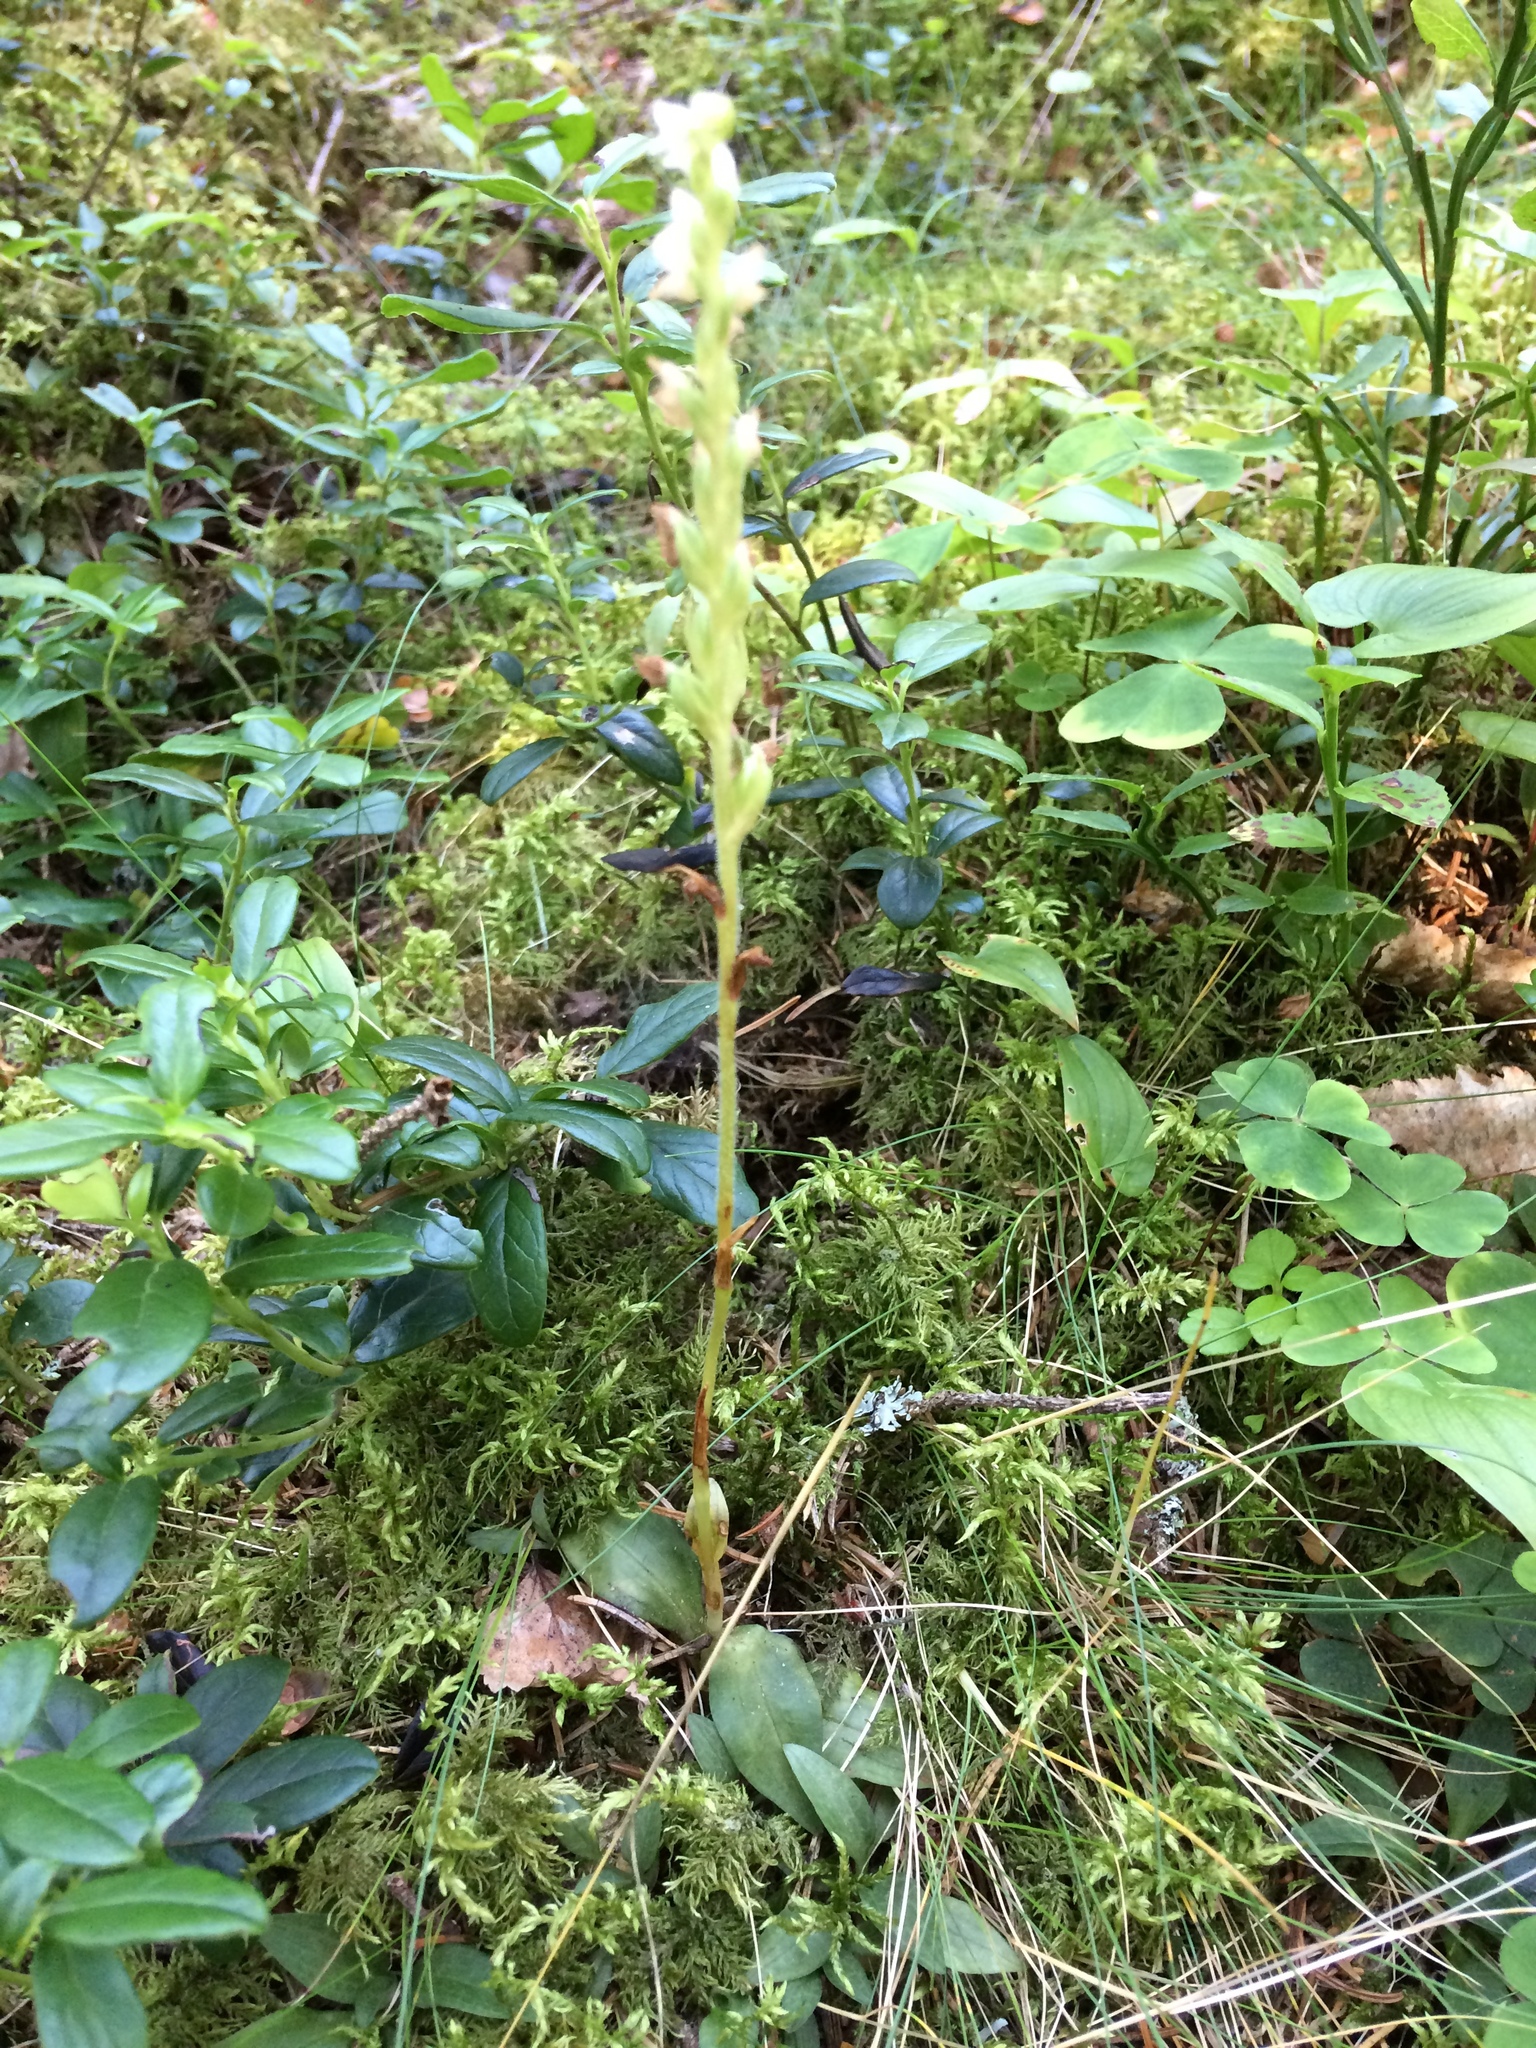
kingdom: Plantae
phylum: Tracheophyta
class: Liliopsida
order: Asparagales
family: Orchidaceae
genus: Goodyera
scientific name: Goodyera repens
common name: Creeping lady's-tresses
